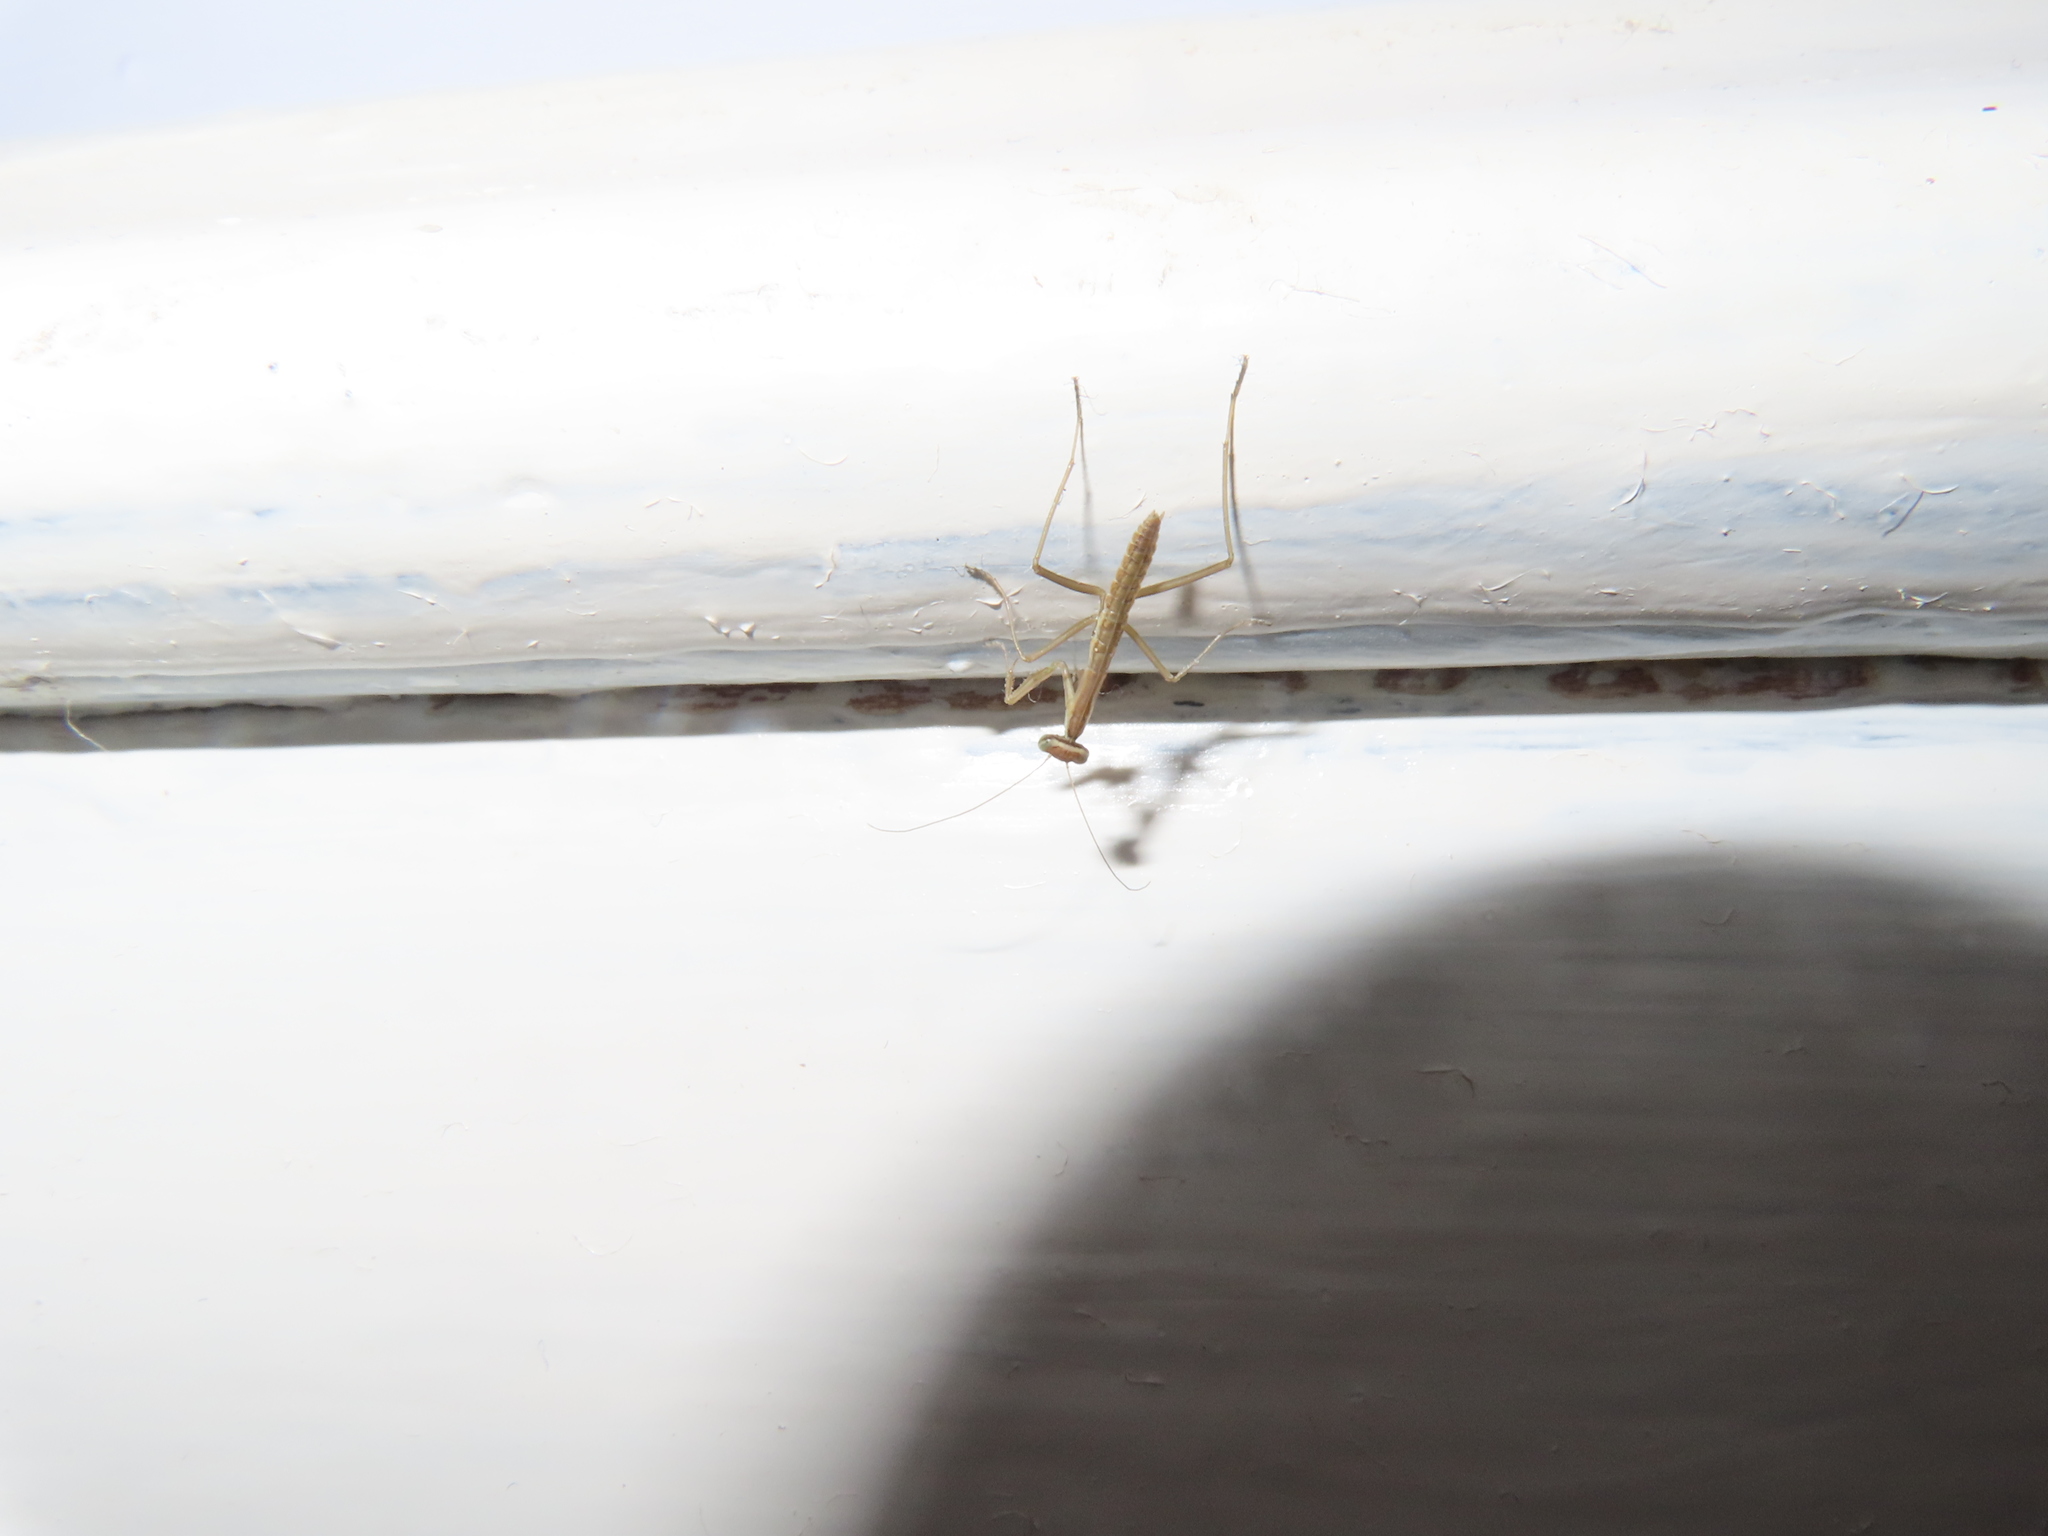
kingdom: Animalia
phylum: Arthropoda
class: Insecta
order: Mantodea
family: Mantidae
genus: Tenodera
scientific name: Tenodera sinensis
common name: Chinese mantis
